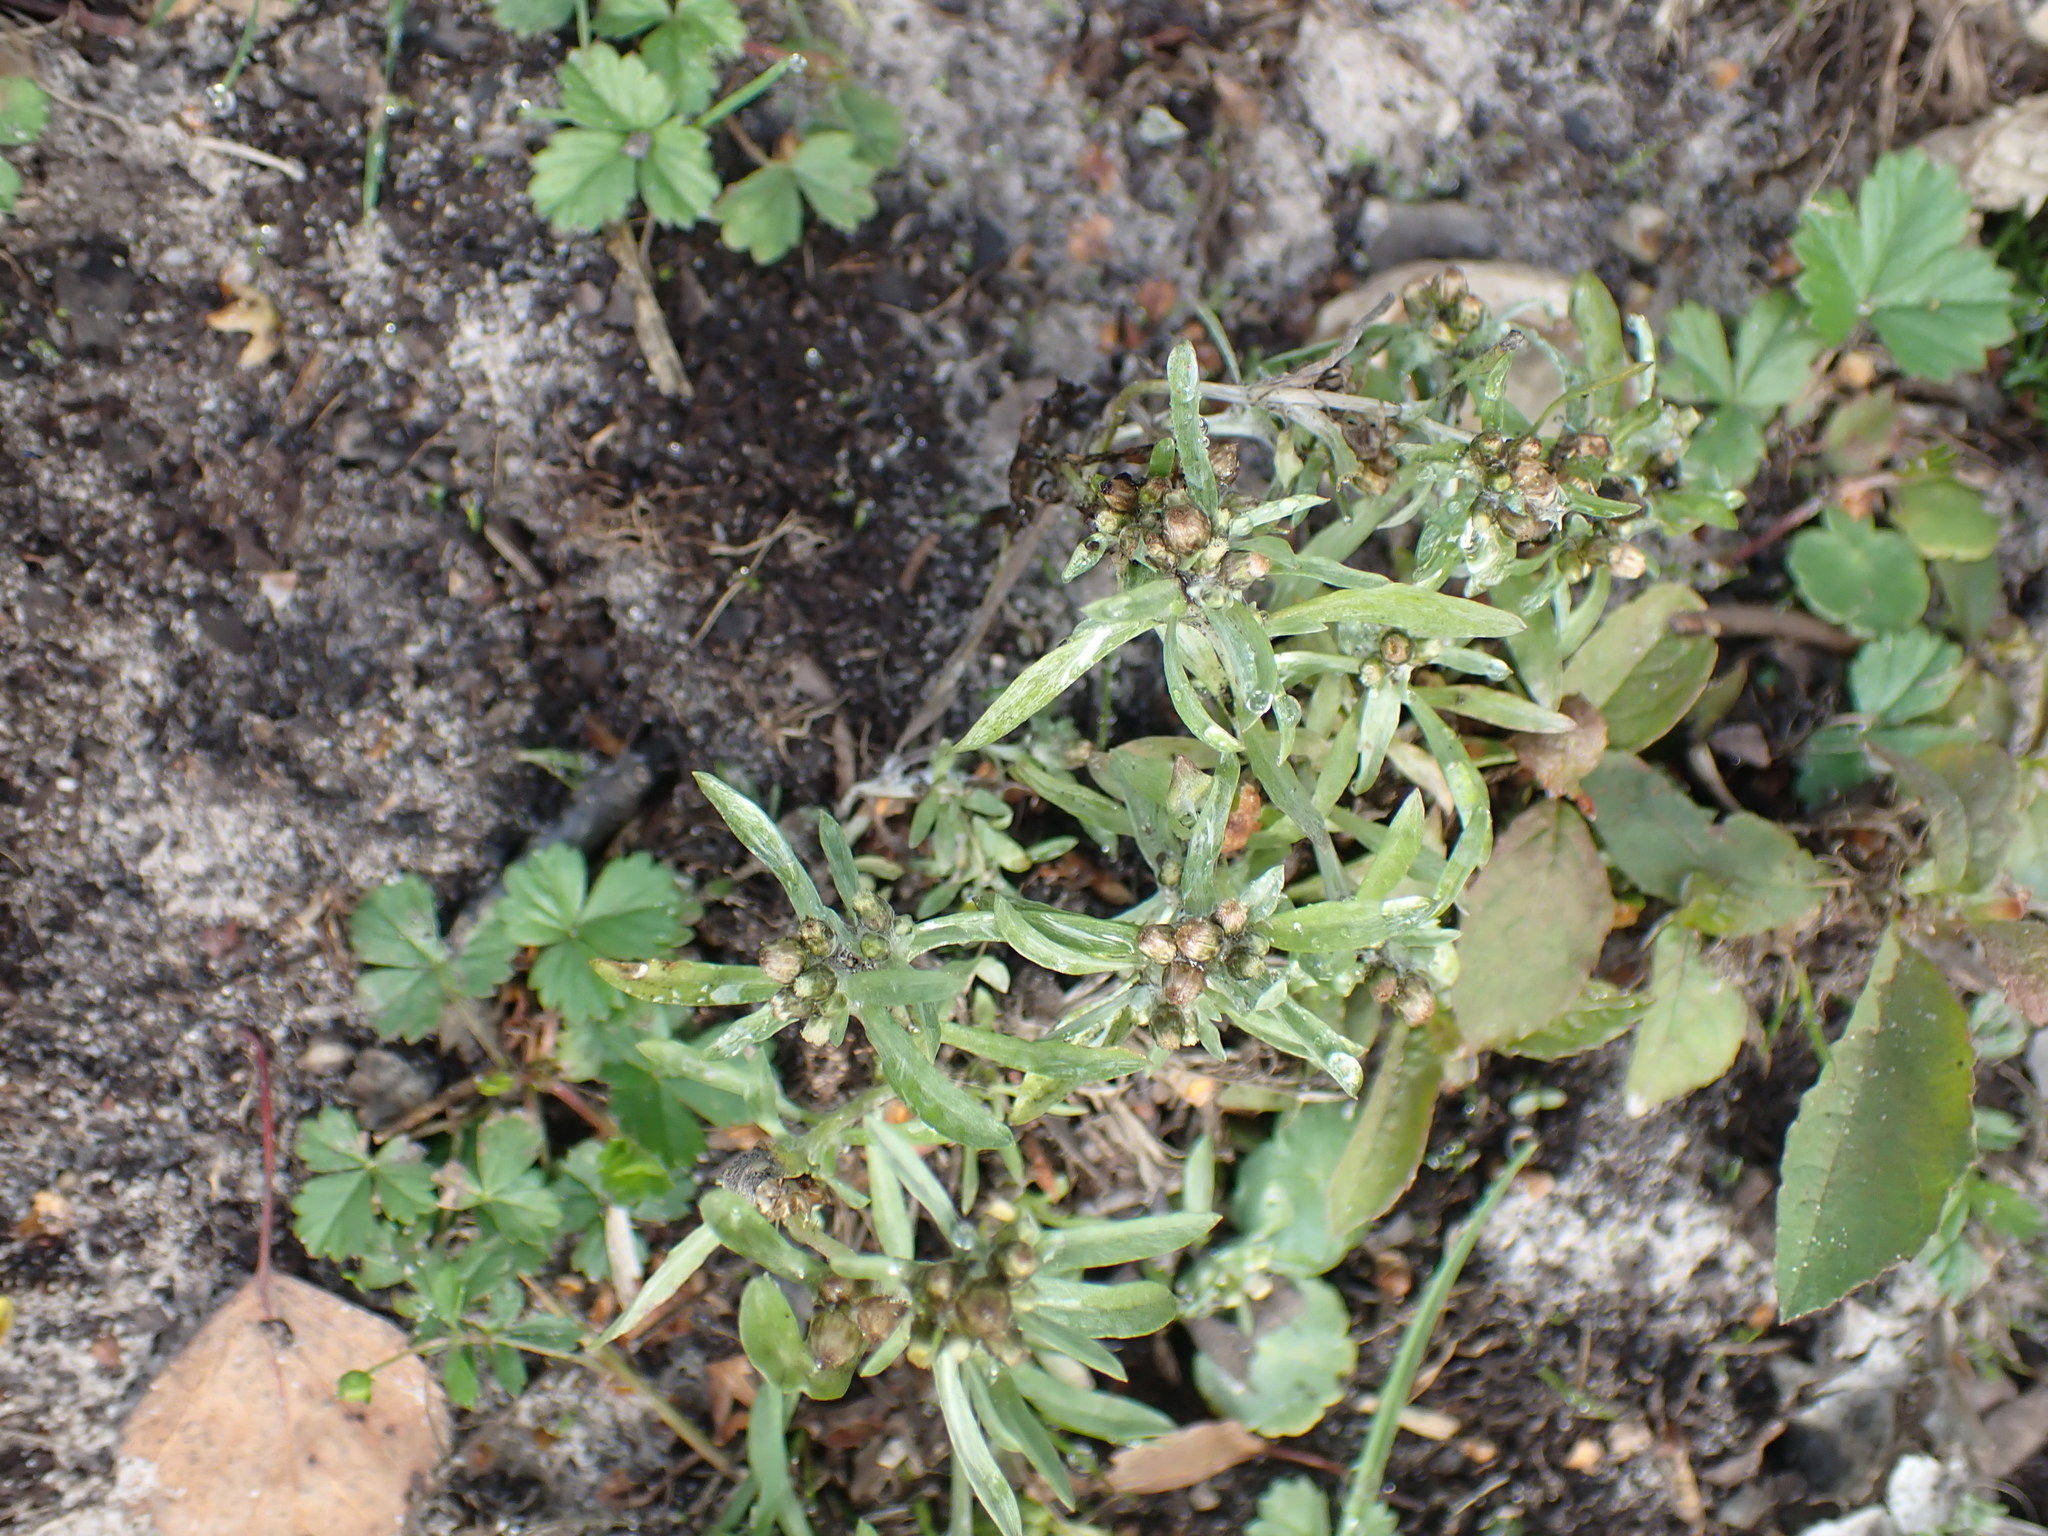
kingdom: Plantae
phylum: Tracheophyta
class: Magnoliopsida
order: Asterales
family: Asteraceae
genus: Gnaphalium
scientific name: Gnaphalium uliginosum
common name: Marsh cudweed
